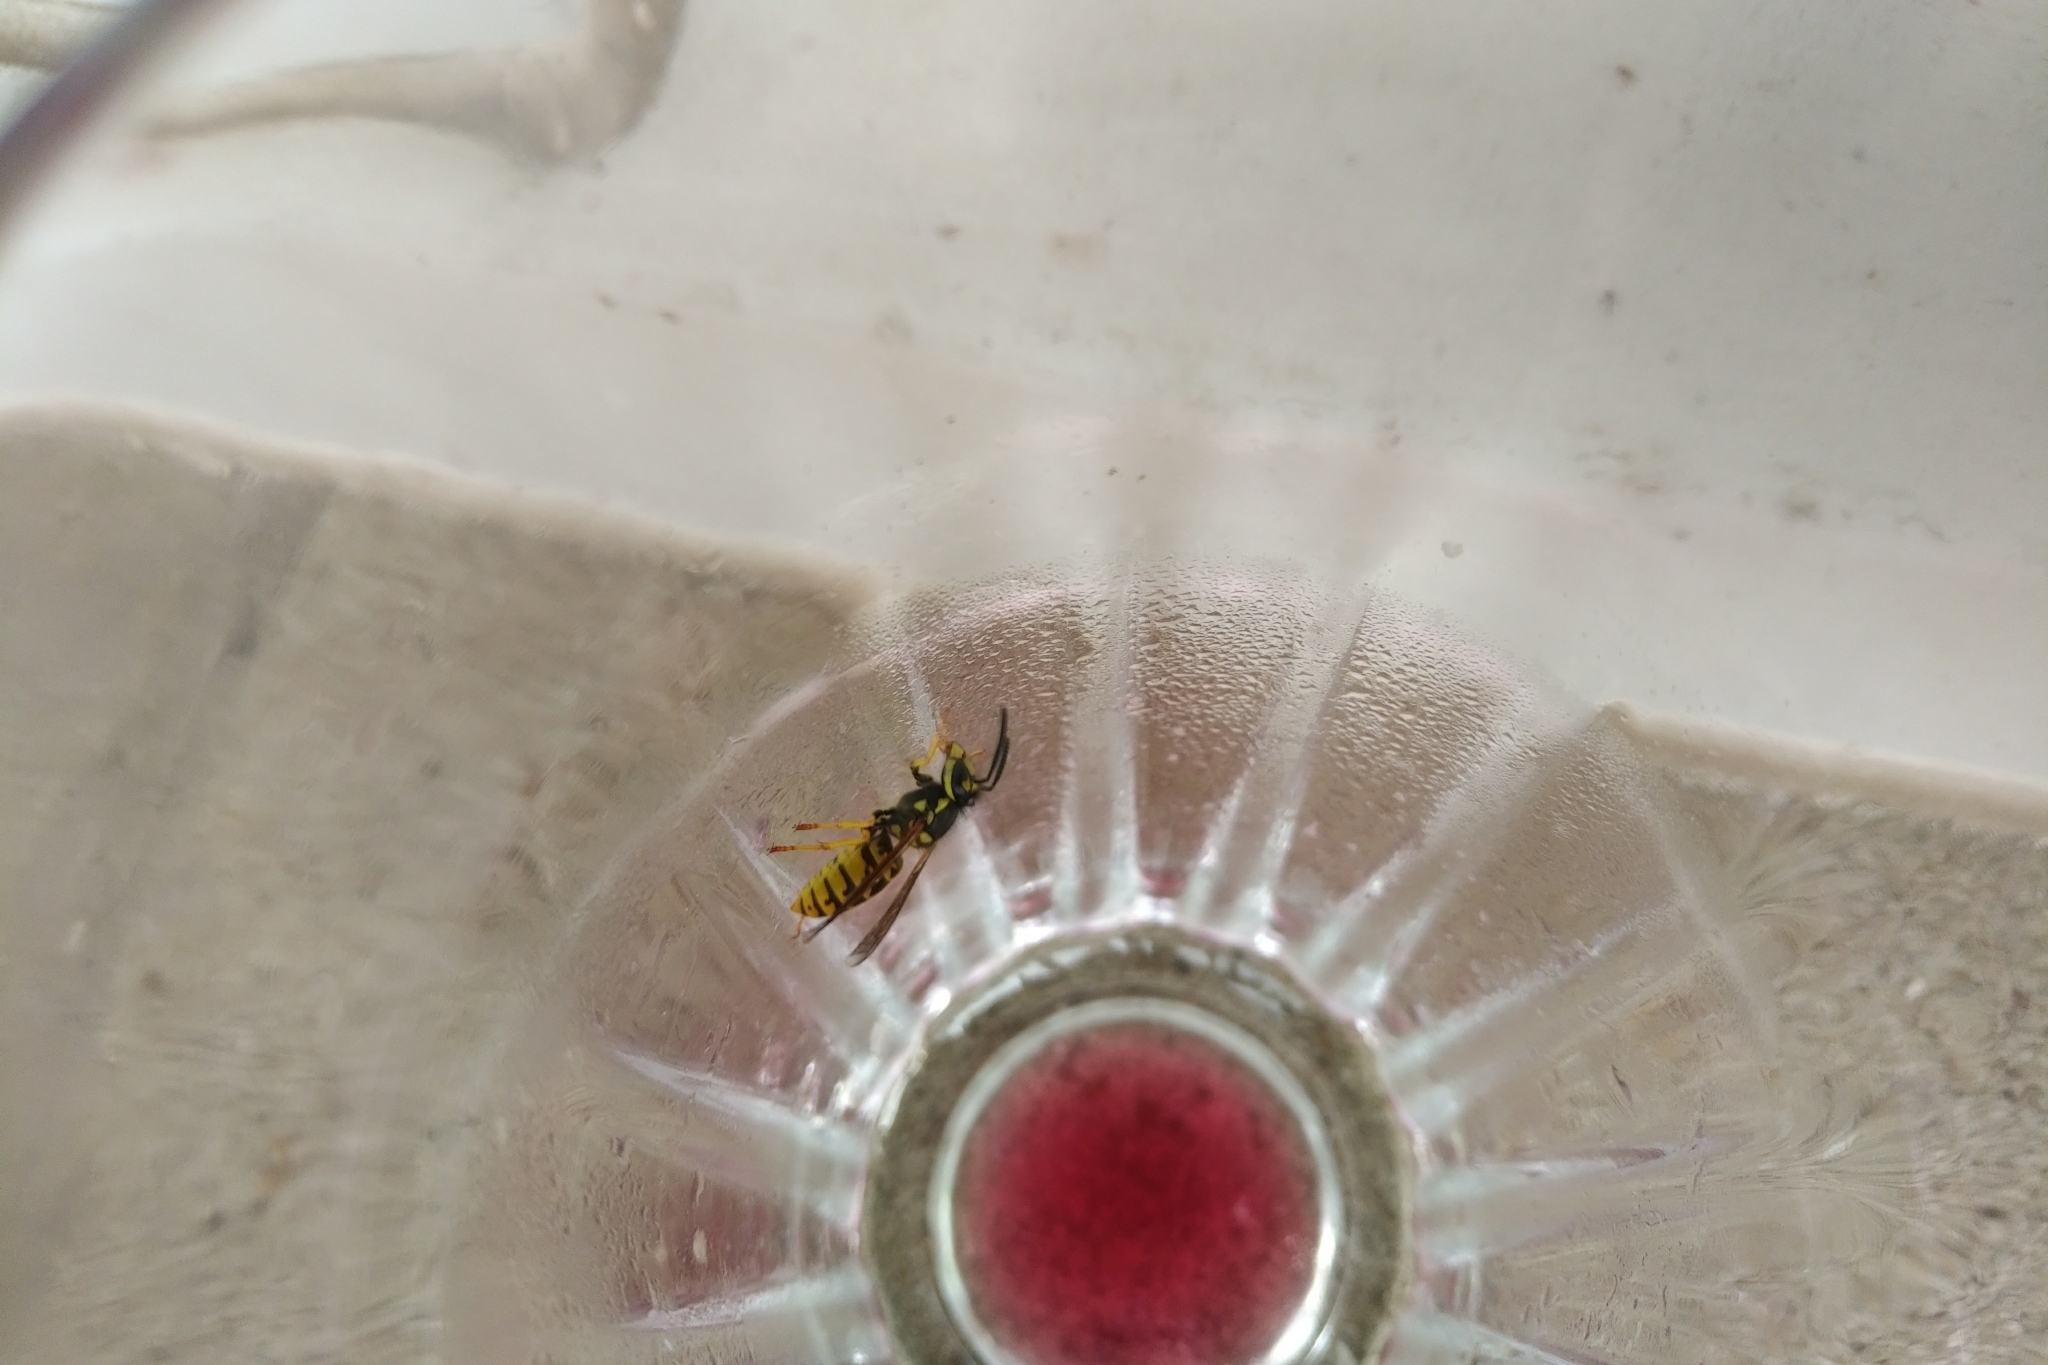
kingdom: Animalia
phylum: Arthropoda
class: Insecta
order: Hymenoptera
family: Vespidae
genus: Vespula
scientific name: Vespula germanica
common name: German wasp
